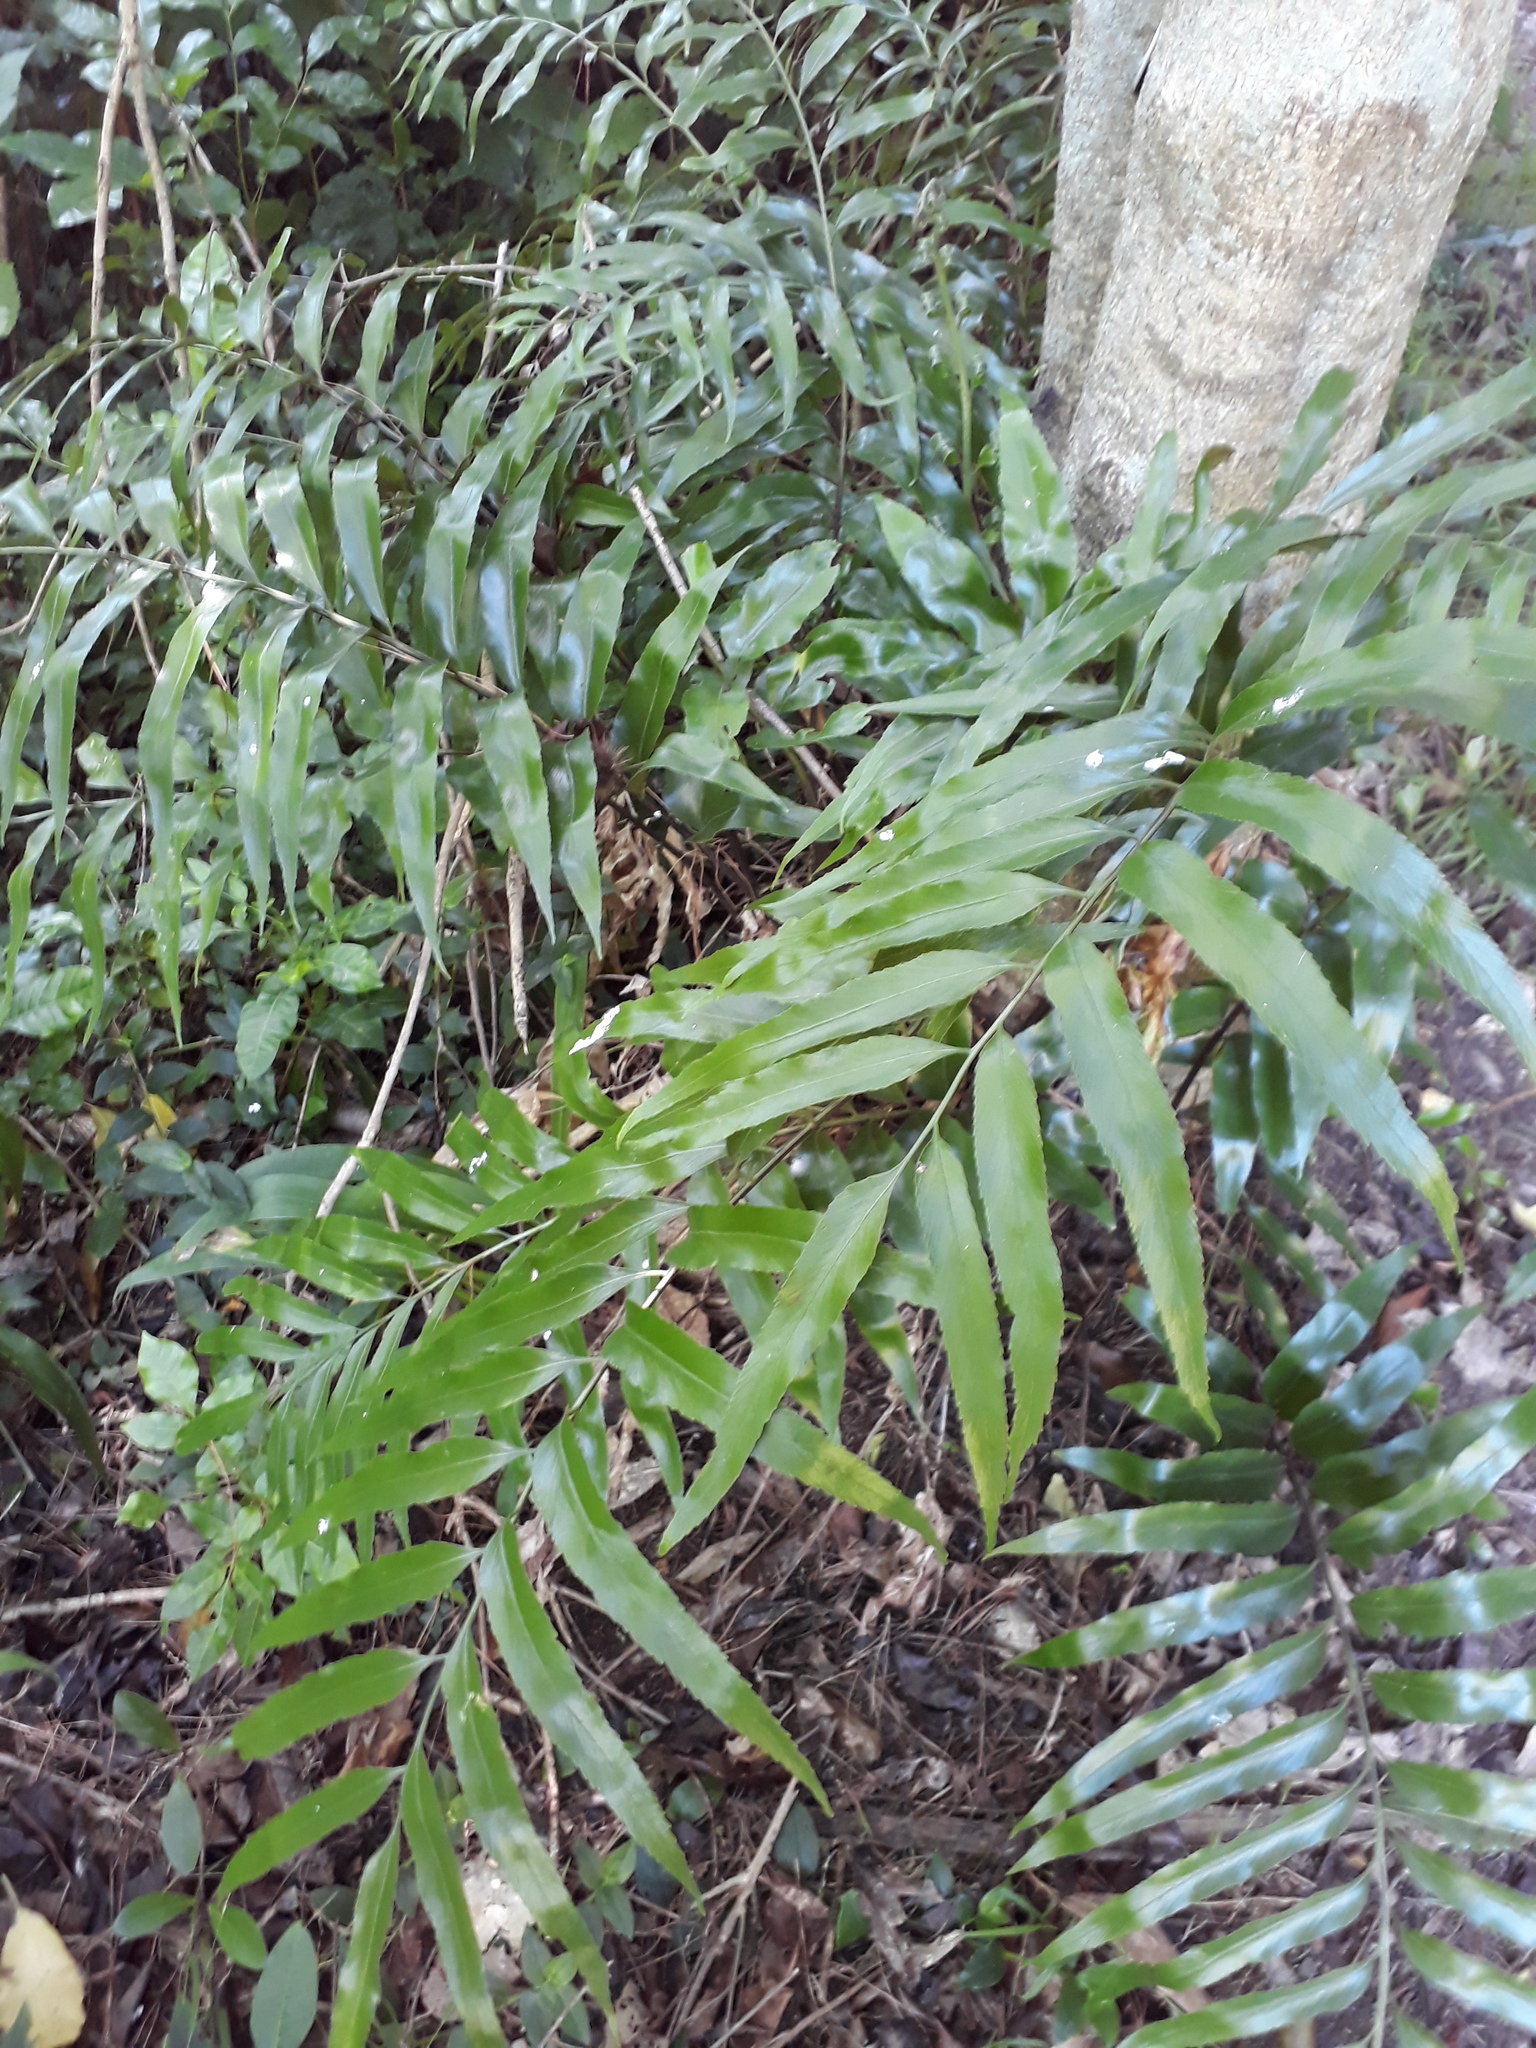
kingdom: Plantae
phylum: Tracheophyta
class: Polypodiopsida
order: Polypodiales
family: Aspleniaceae
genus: Asplenium
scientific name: Asplenium oblongifolium
